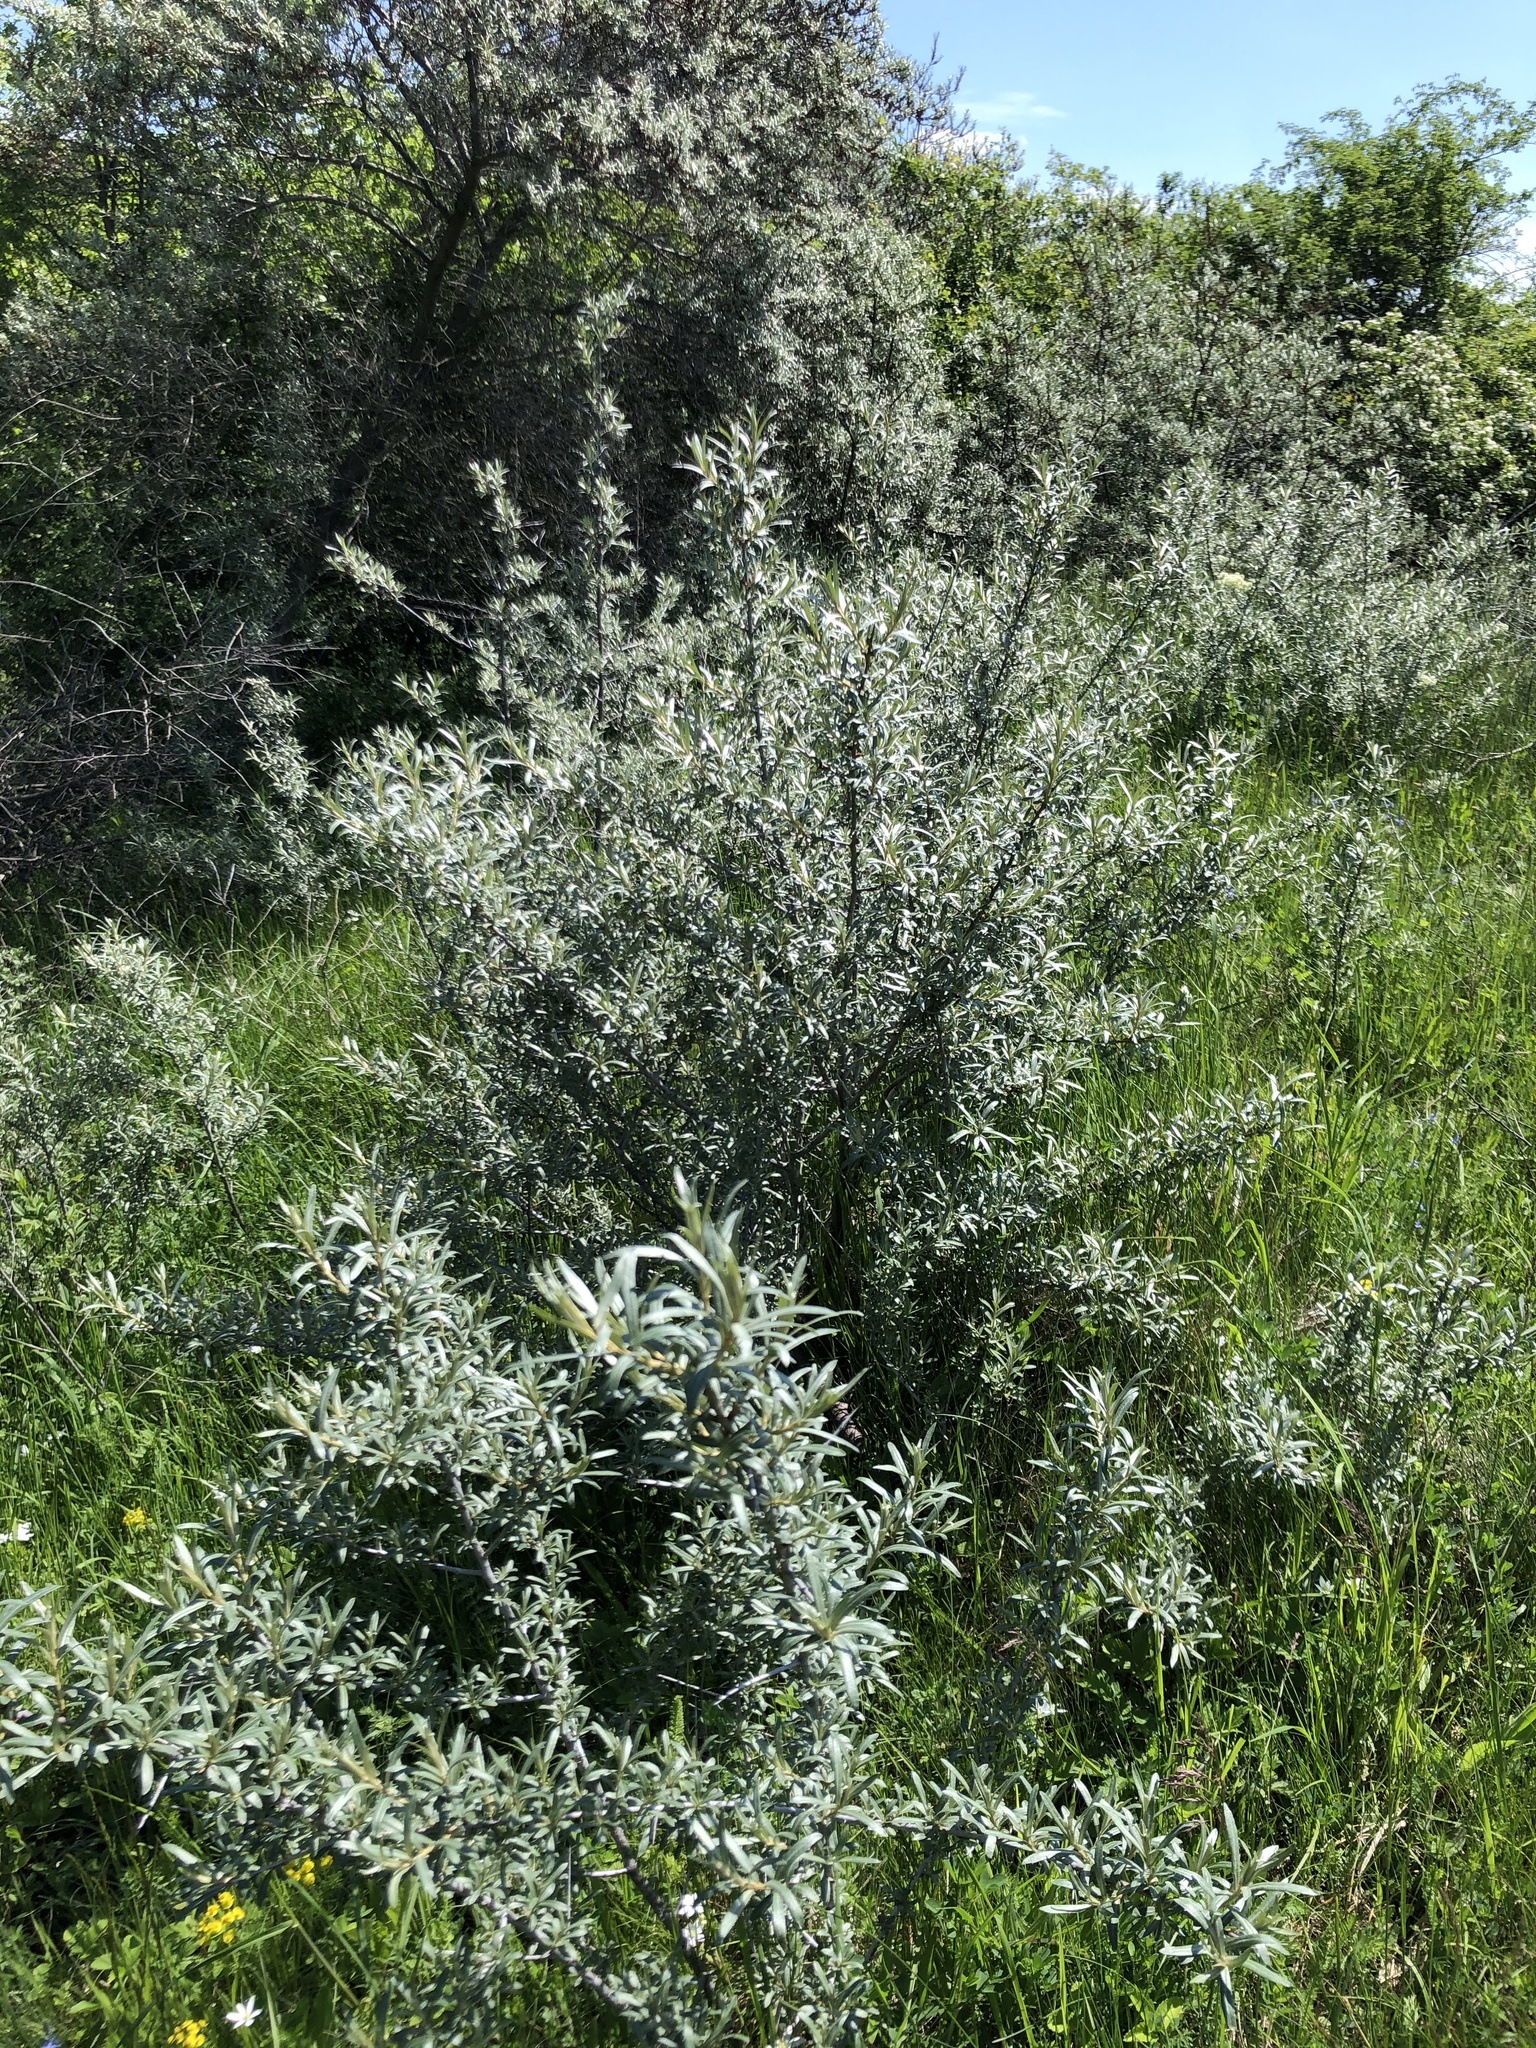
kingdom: Plantae
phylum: Tracheophyta
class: Magnoliopsida
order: Rosales
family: Elaeagnaceae
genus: Hippophae
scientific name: Hippophae rhamnoides
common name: Sea-buckthorn
